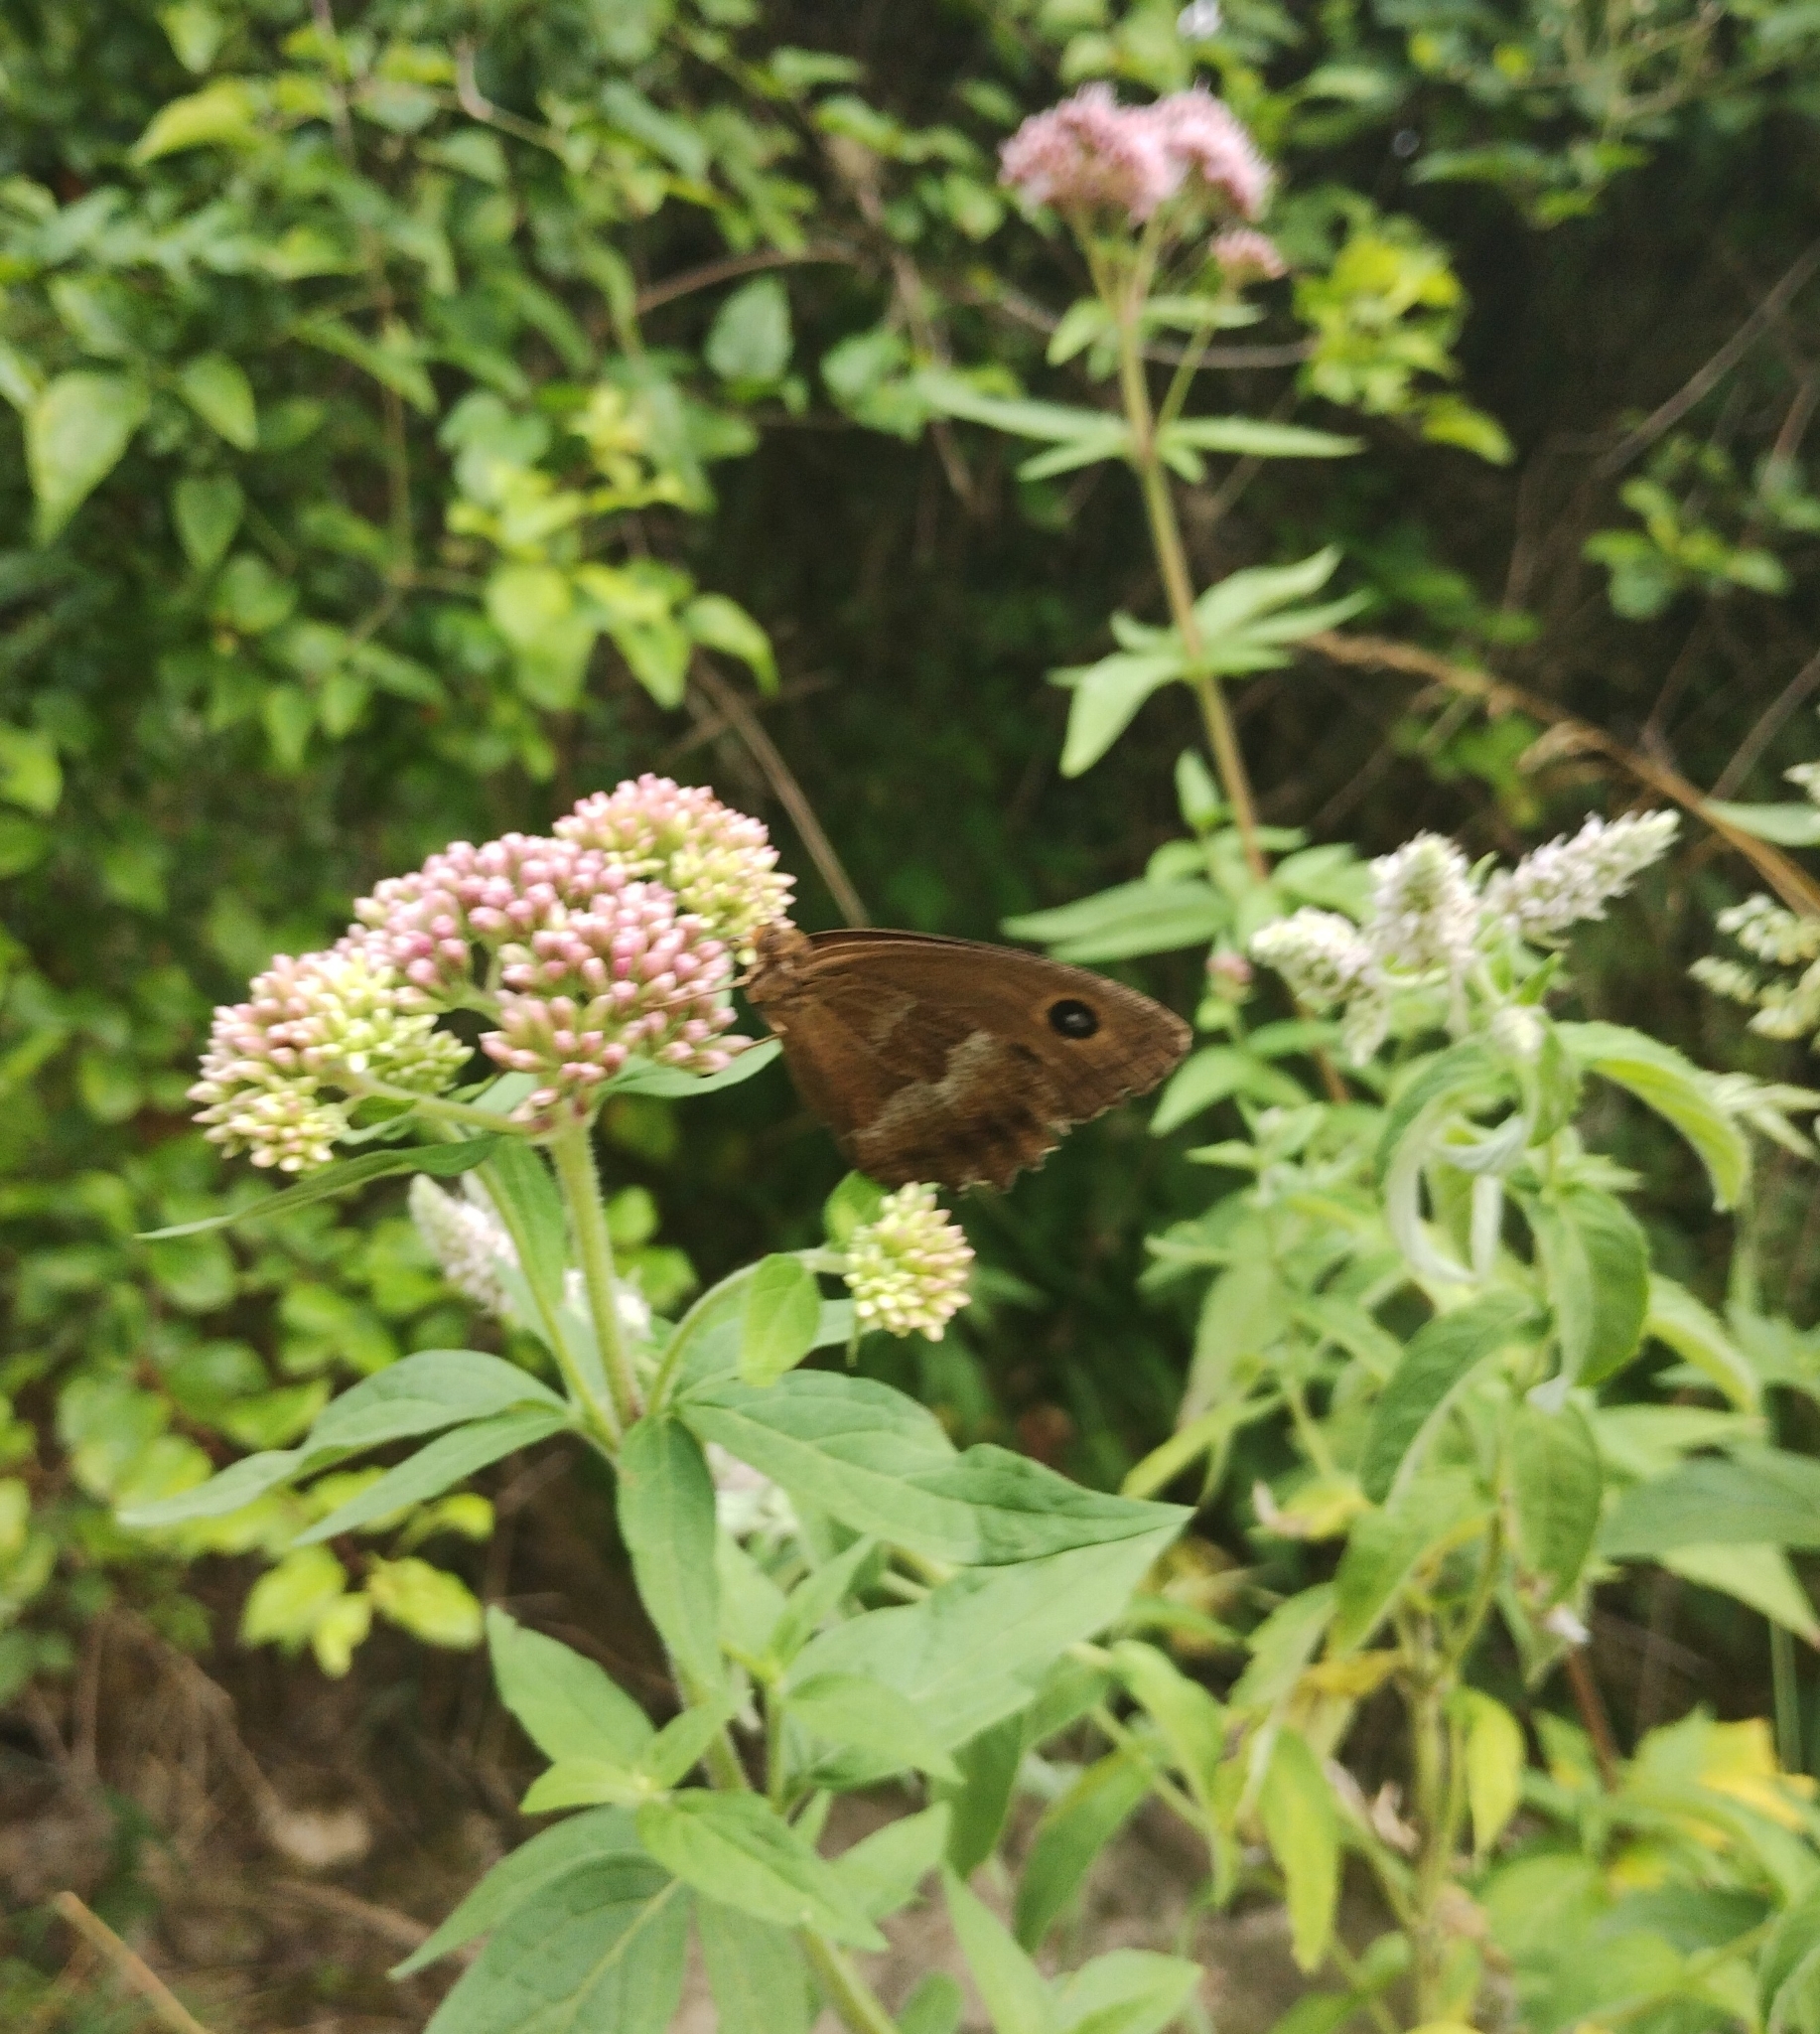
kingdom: Animalia
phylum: Arthropoda
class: Insecta
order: Lepidoptera
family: Nymphalidae
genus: Minois
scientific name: Minois dryas
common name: Dryad
